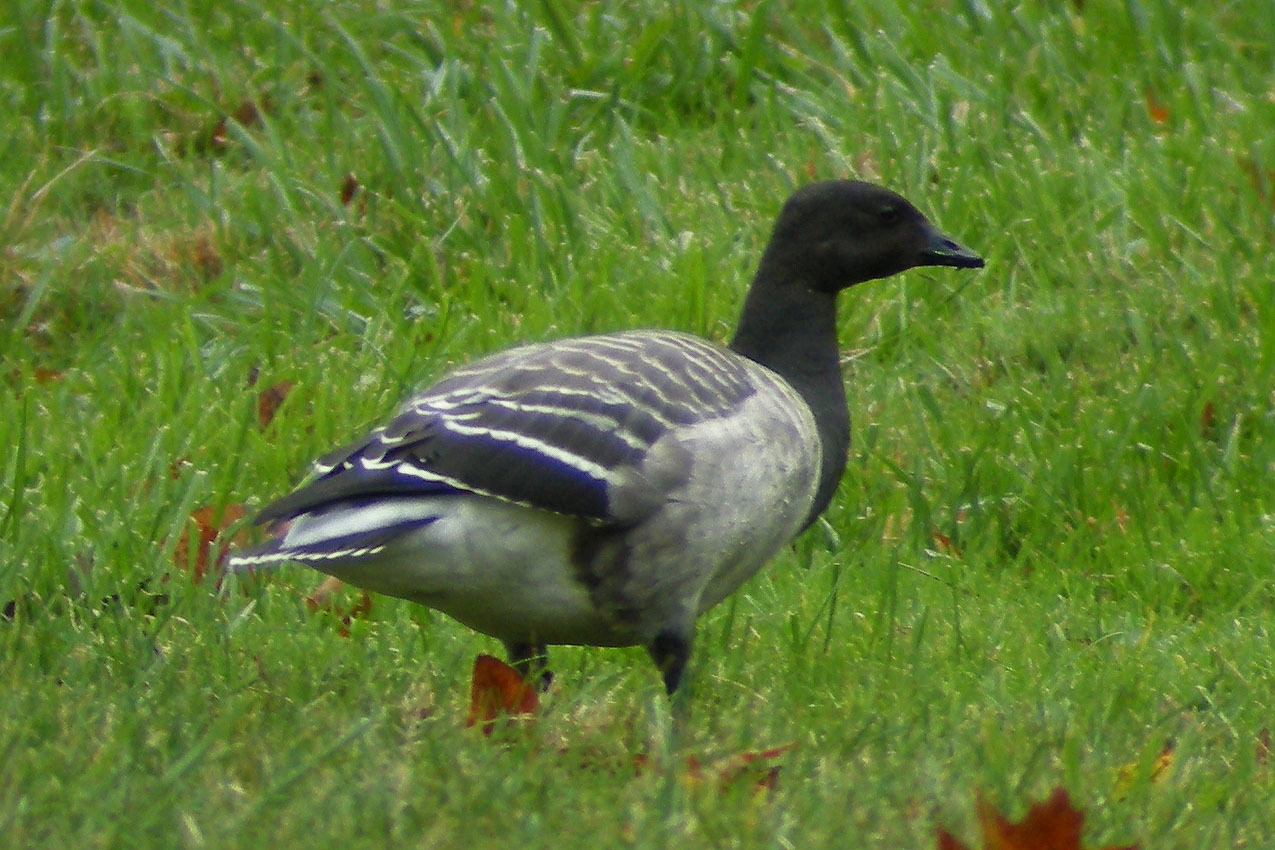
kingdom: Animalia
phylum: Chordata
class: Aves
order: Anseriformes
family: Anatidae
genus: Branta
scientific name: Branta bernicla
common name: Brant goose
